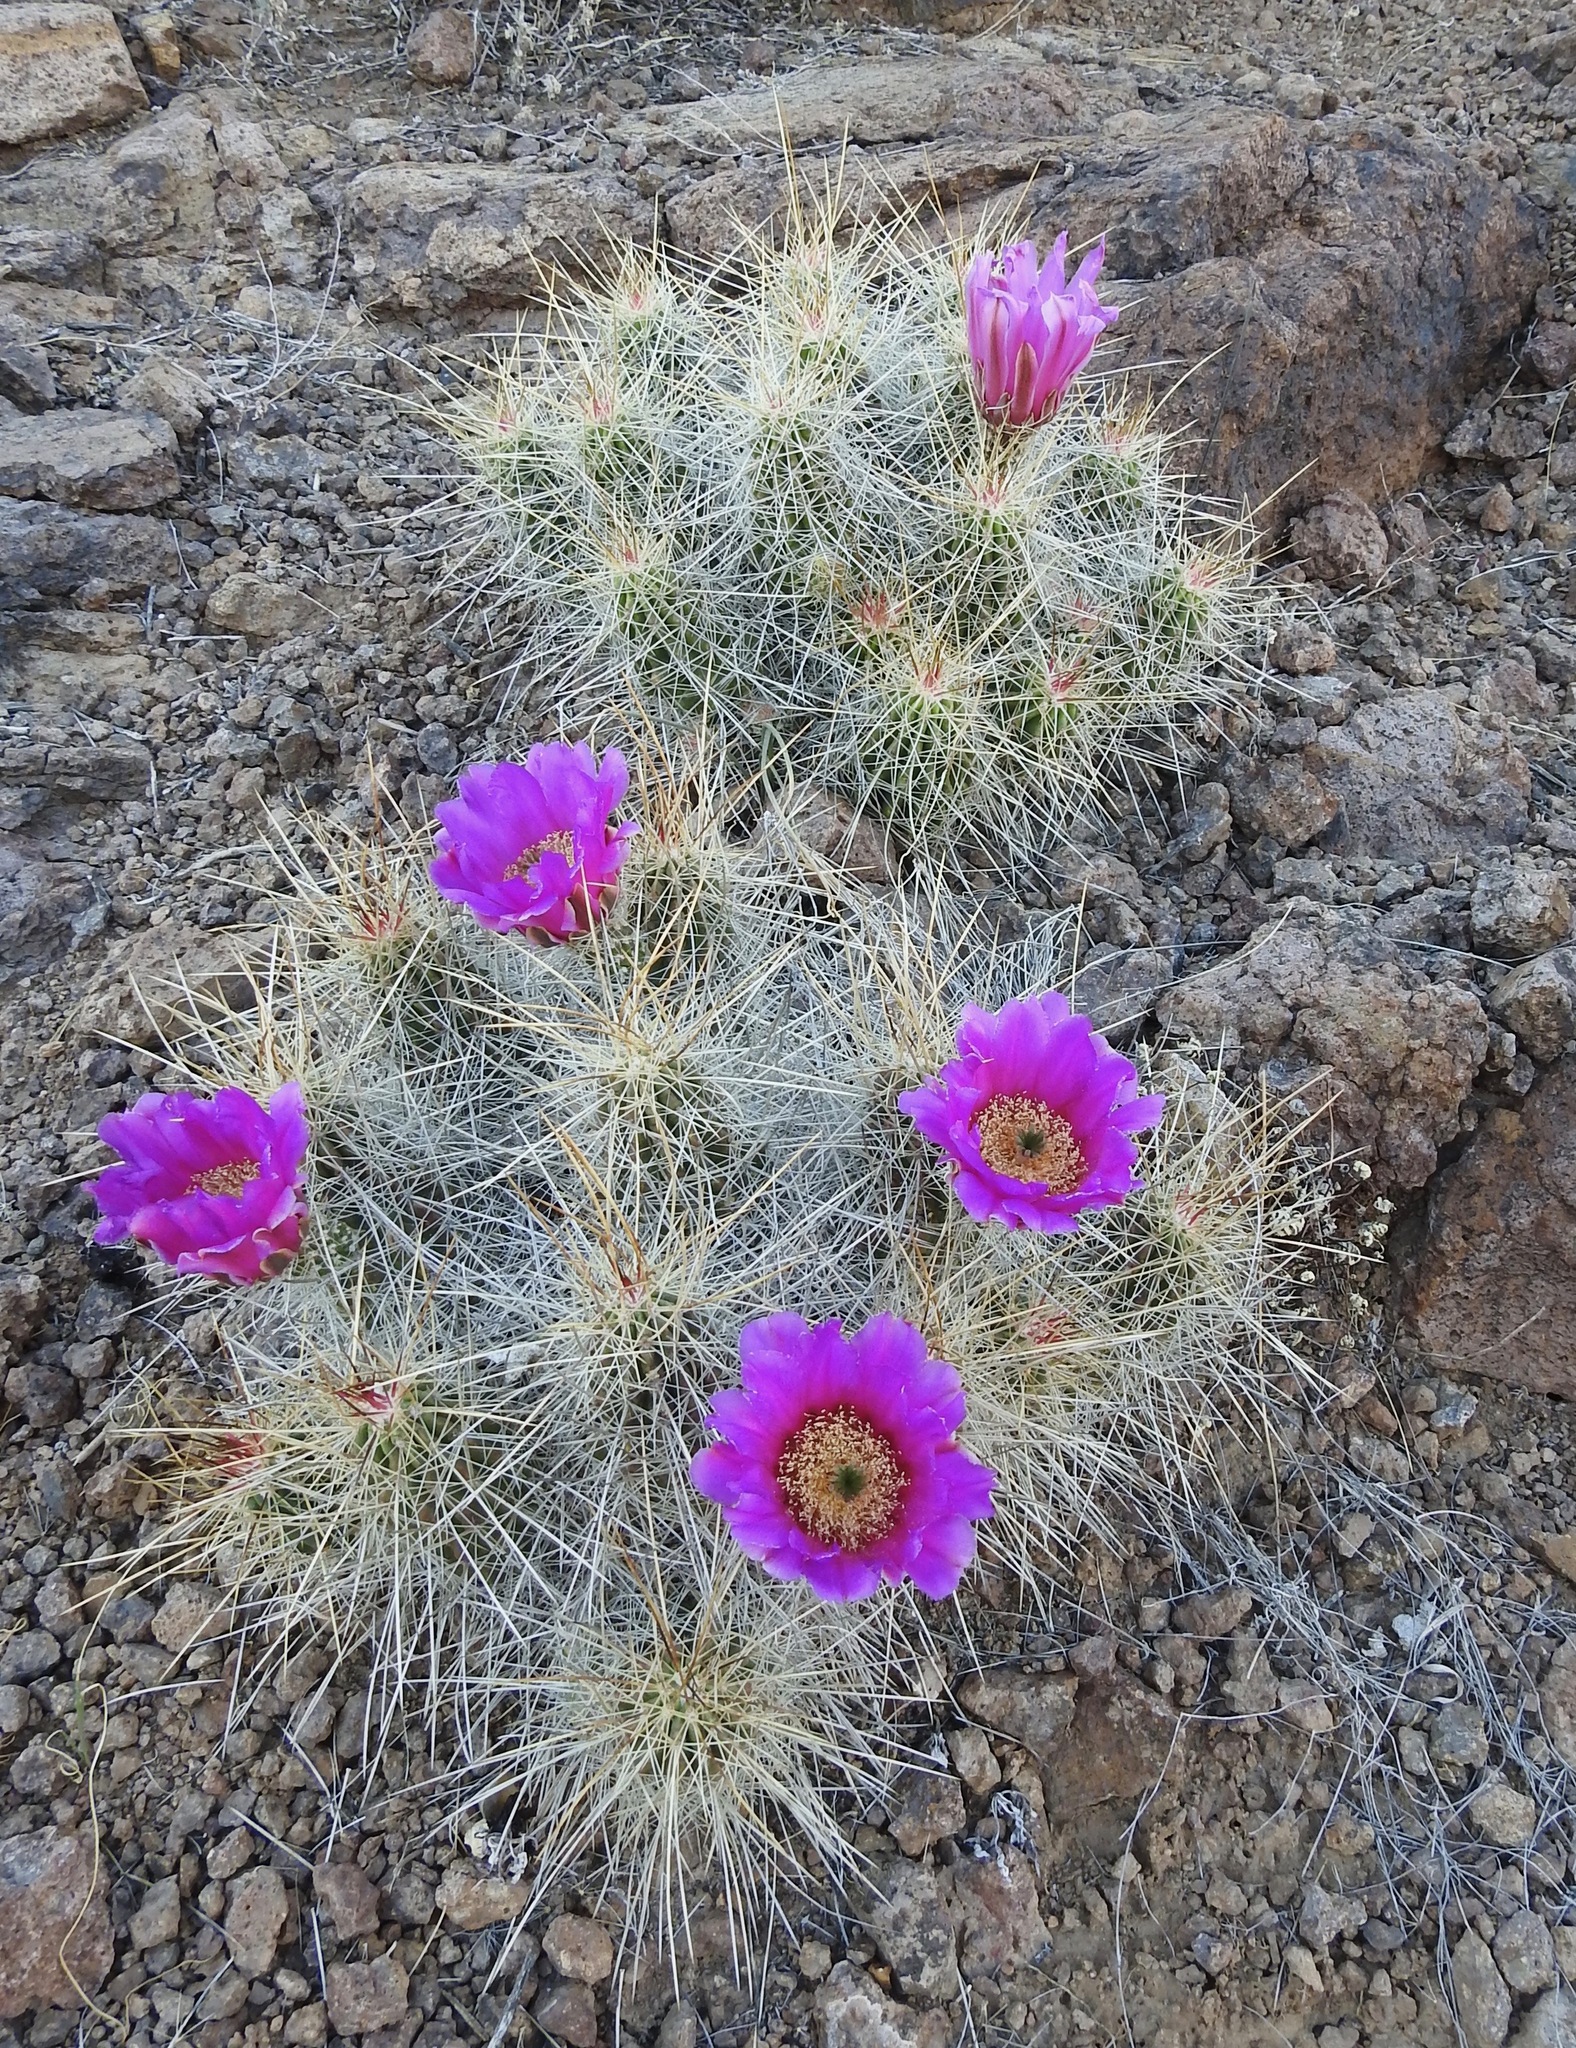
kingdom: Plantae
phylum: Tracheophyta
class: Magnoliopsida
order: Caryophyllales
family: Cactaceae
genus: Echinocereus
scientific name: Echinocereus stramineus
